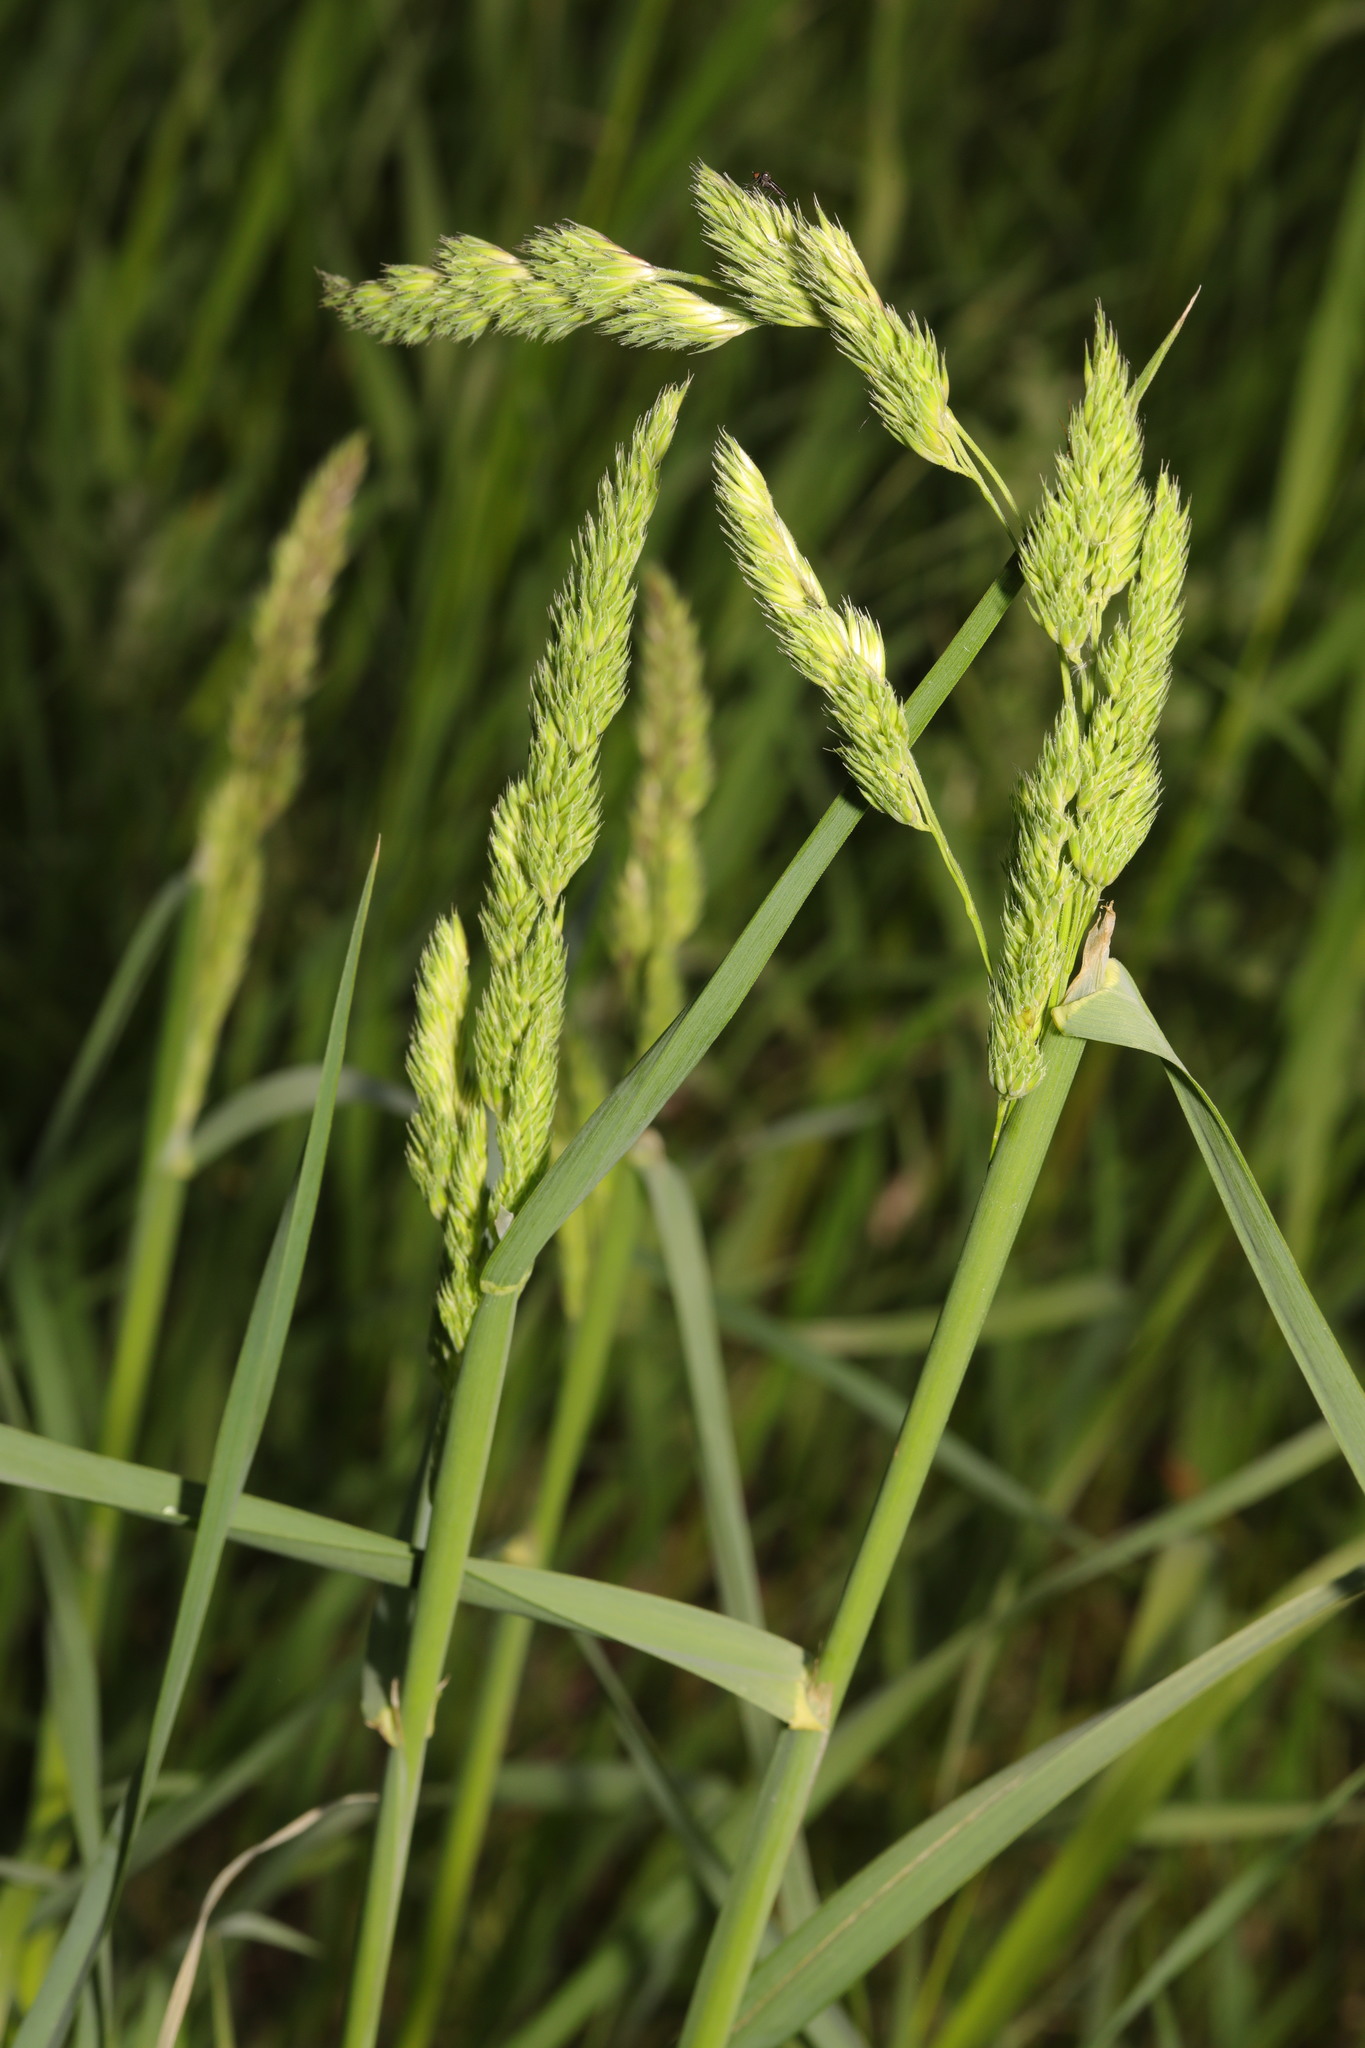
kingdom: Plantae
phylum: Tracheophyta
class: Liliopsida
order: Poales
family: Poaceae
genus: Dactylis
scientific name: Dactylis glomerata
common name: Orchardgrass
